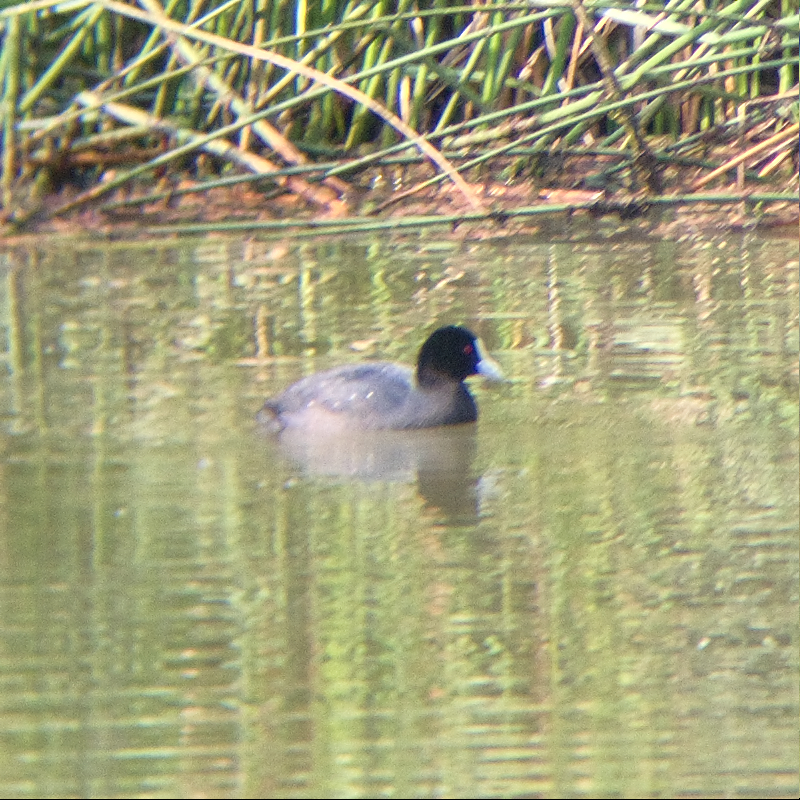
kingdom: Animalia
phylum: Chordata
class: Aves
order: Gruiformes
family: Rallidae
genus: Fulica
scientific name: Fulica atra
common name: Eurasian coot
